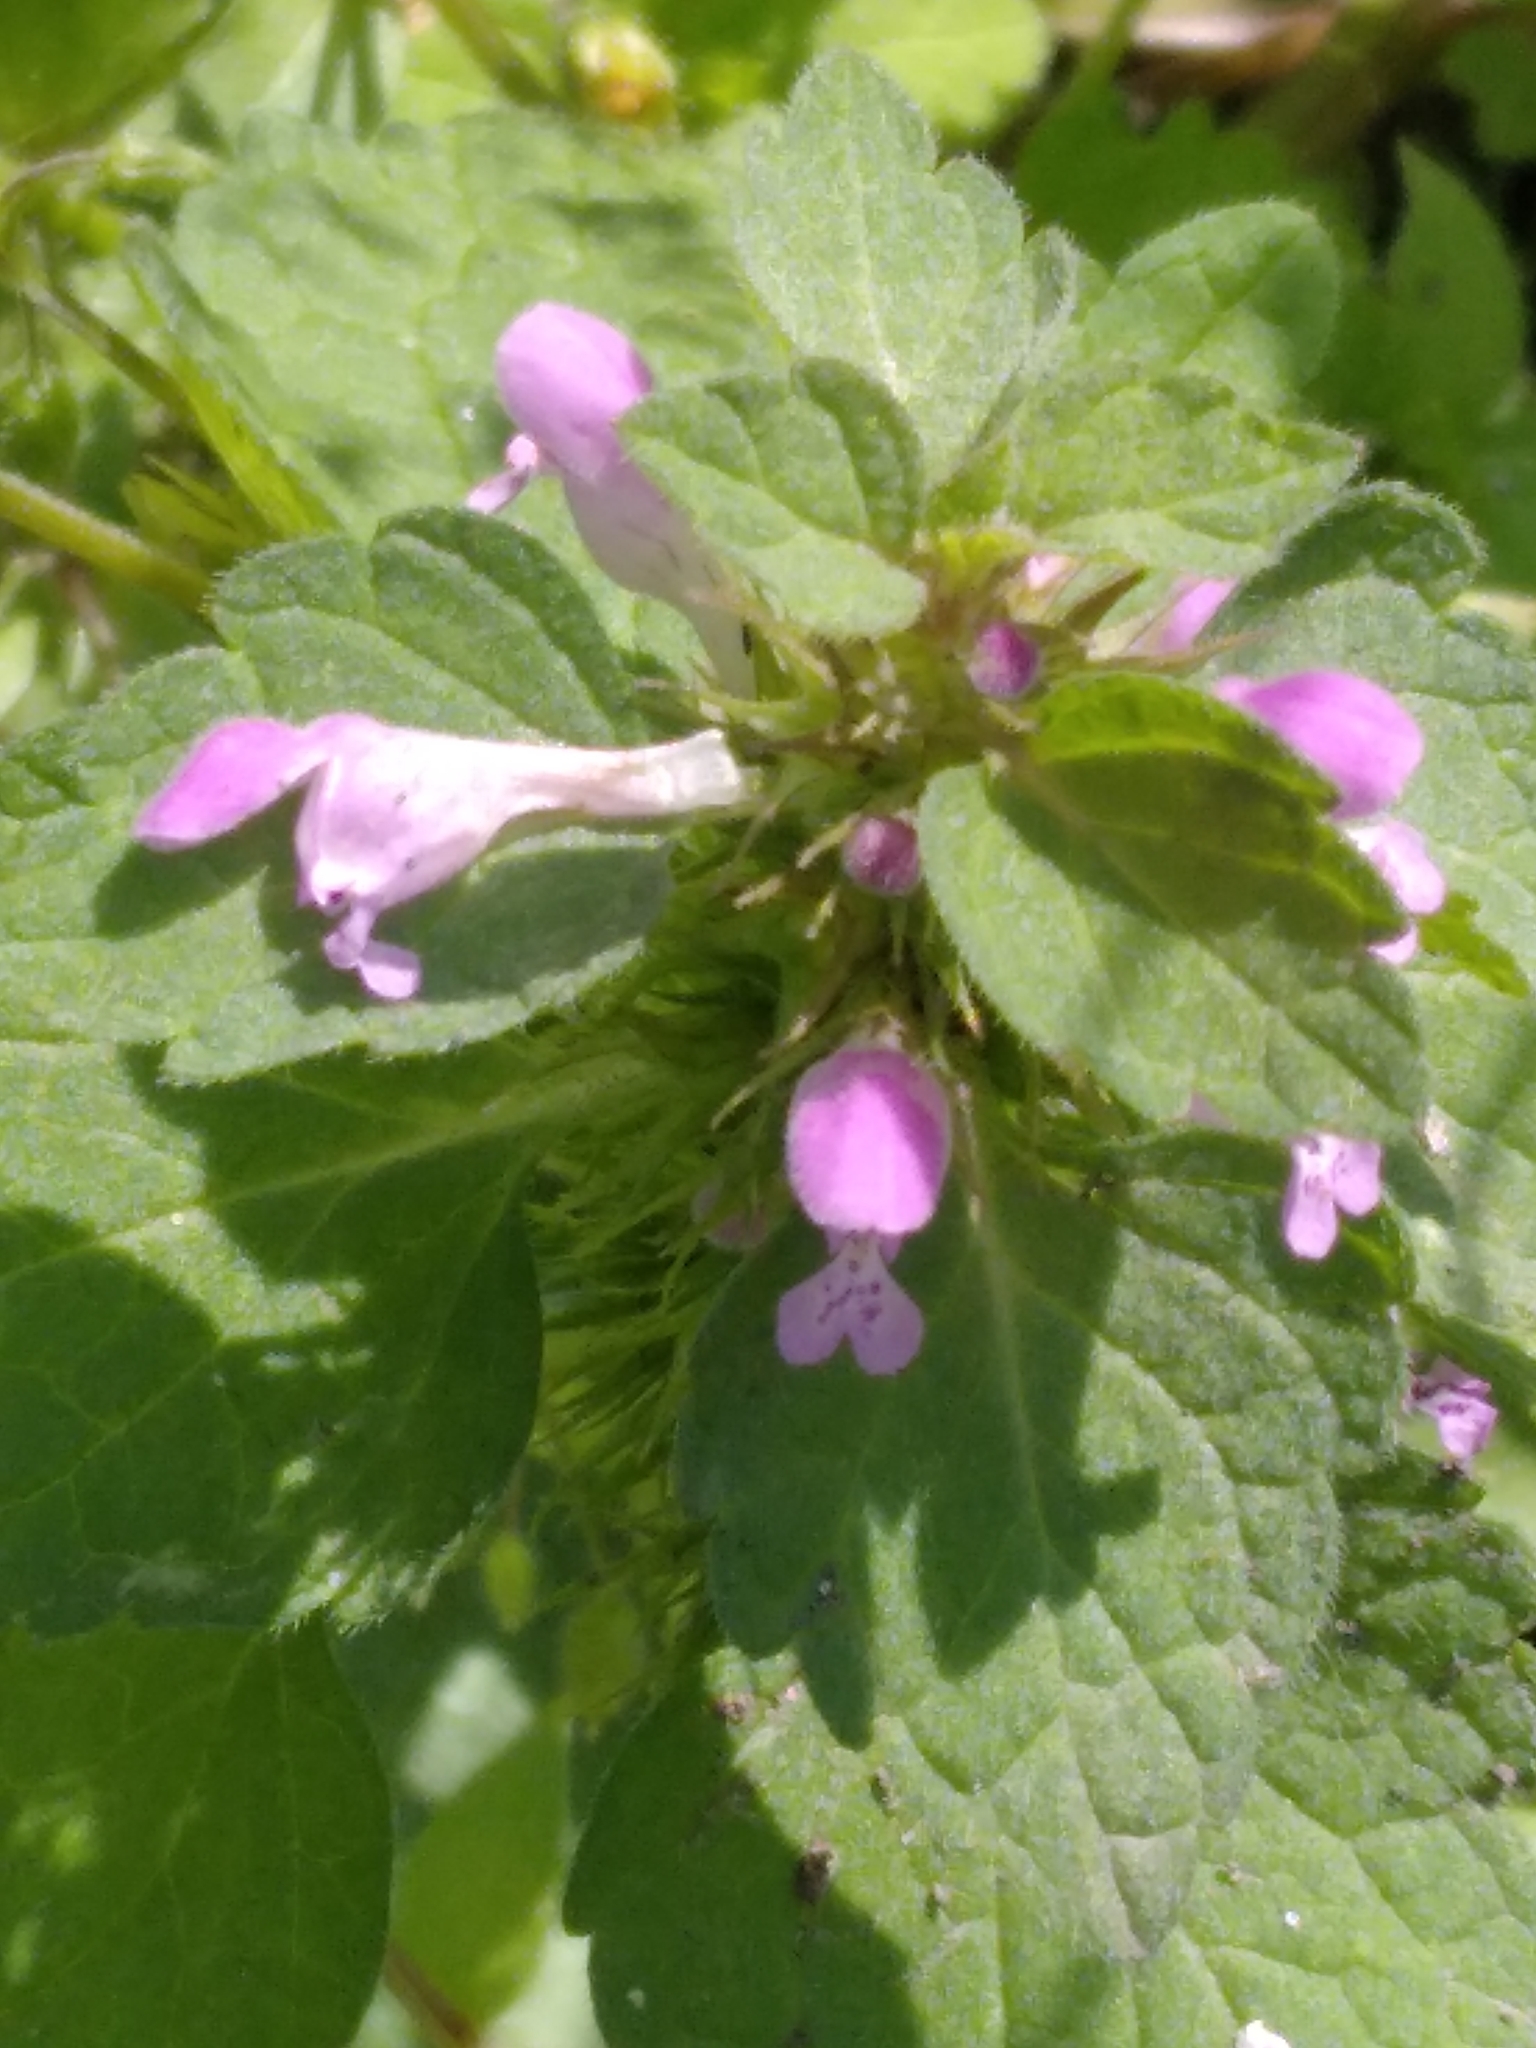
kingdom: Plantae
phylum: Tracheophyta
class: Magnoliopsida
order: Lamiales
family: Lamiaceae
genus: Lamium
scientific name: Lamium purpureum
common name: Red dead-nettle
